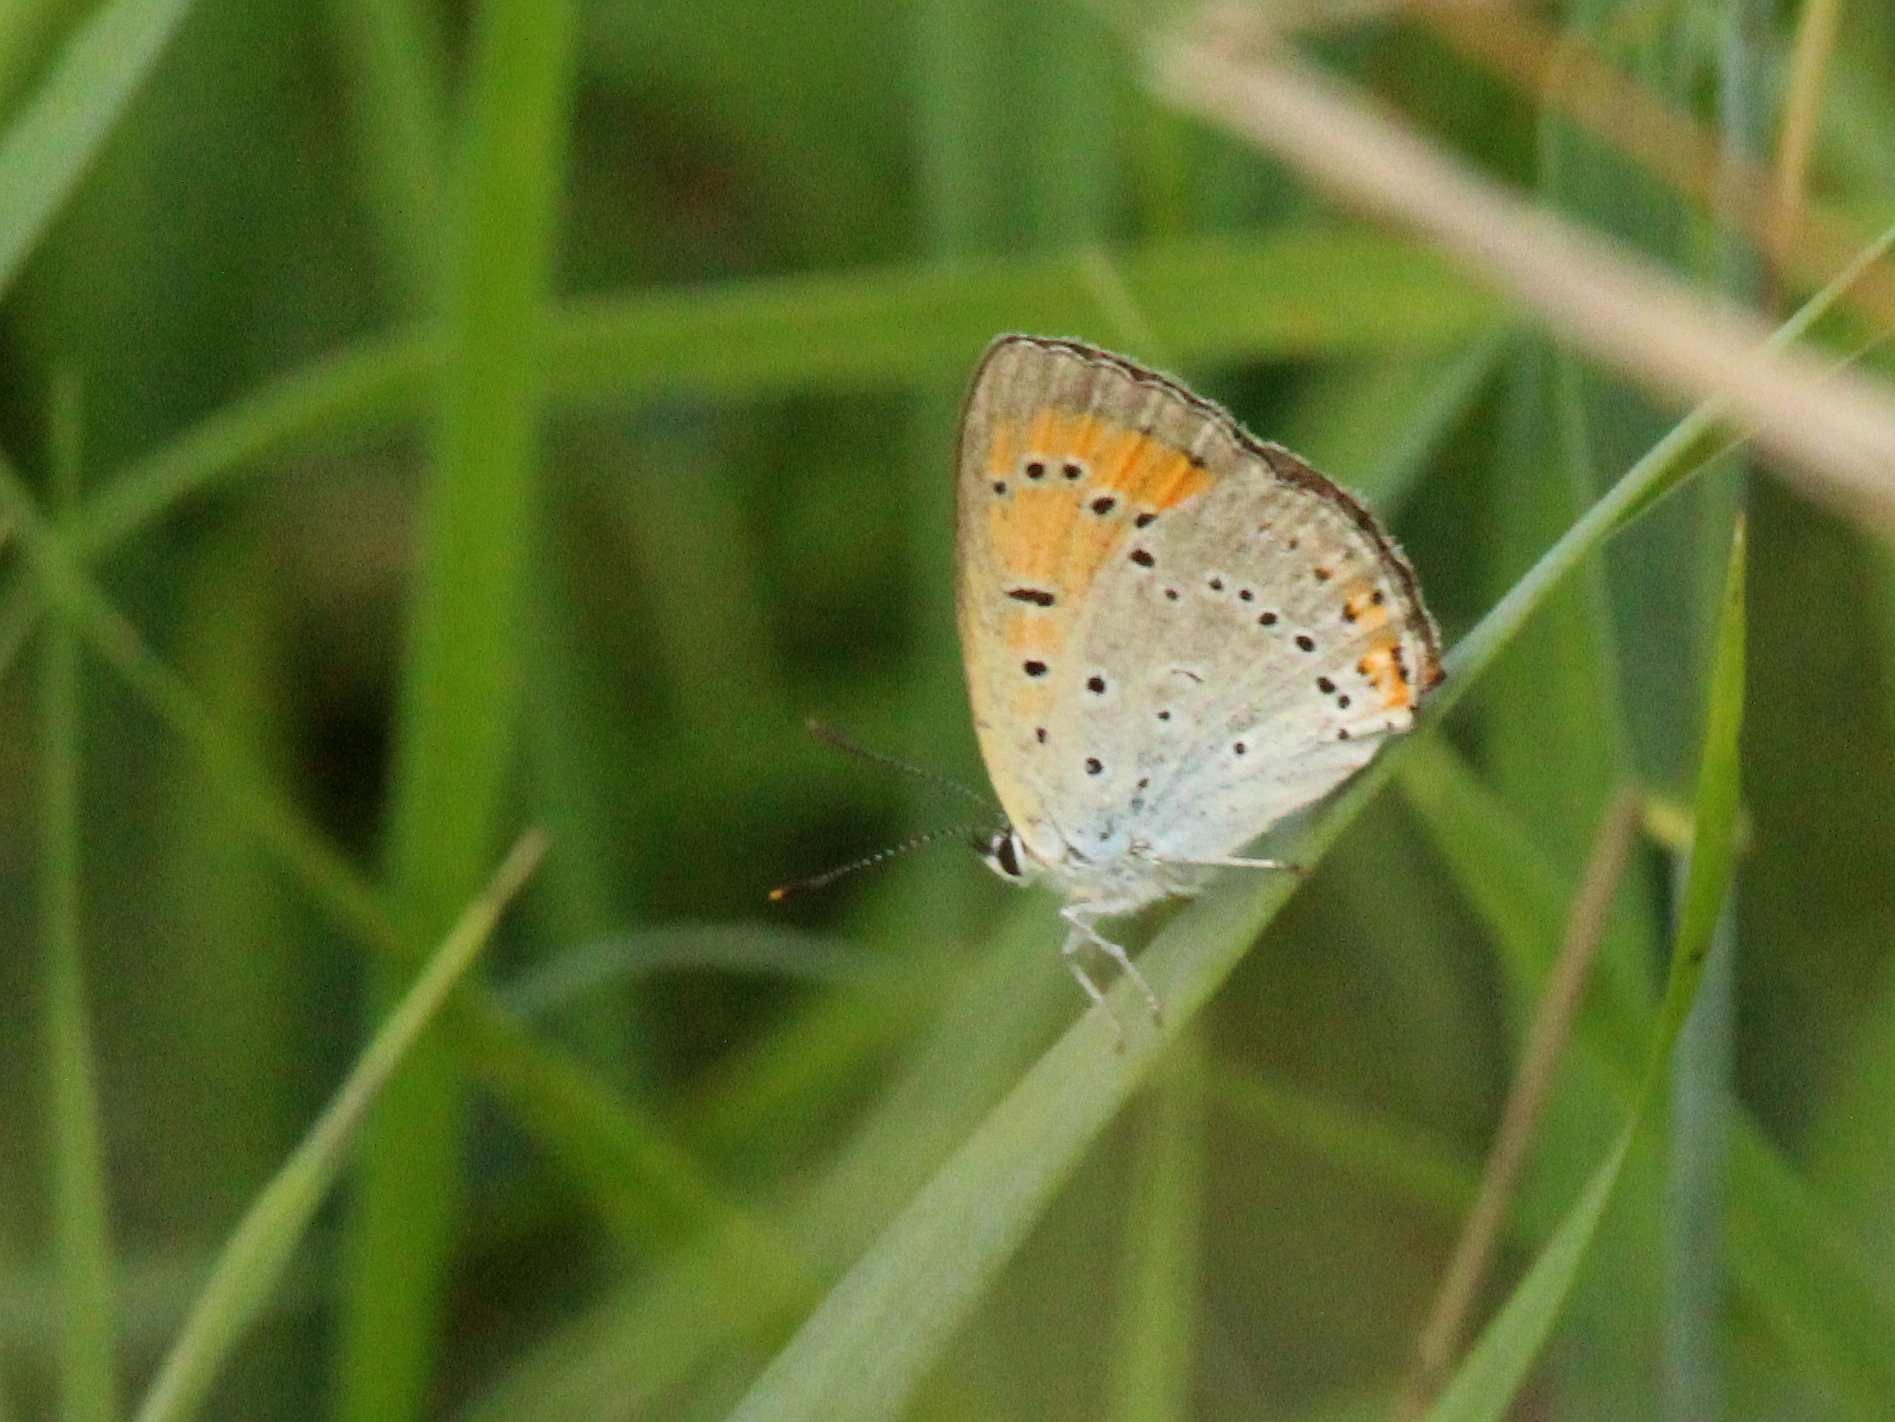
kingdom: Animalia
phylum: Arthropoda
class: Insecta
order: Lepidoptera
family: Lycaenidae
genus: Lycaena
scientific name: Lycaena dispar
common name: Large copper
